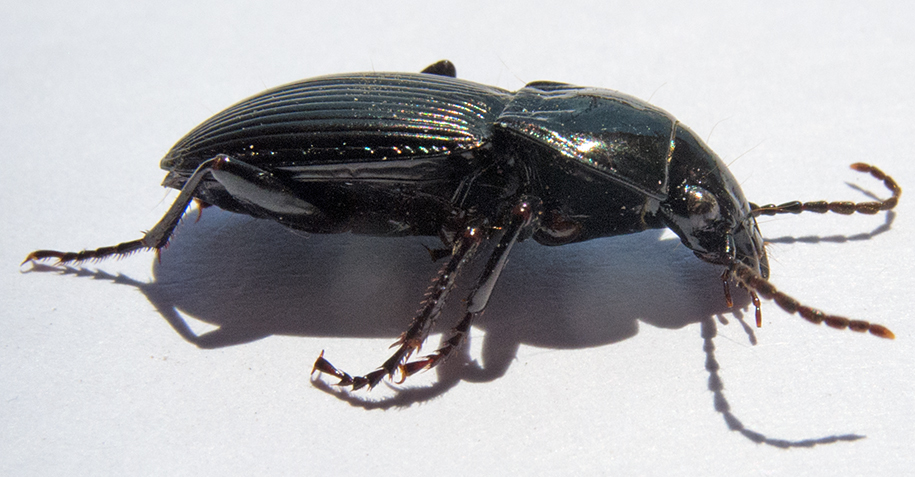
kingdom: Animalia
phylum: Arthropoda
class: Insecta
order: Coleoptera
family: Carabidae
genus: Pterostichus
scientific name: Pterostichus melas
